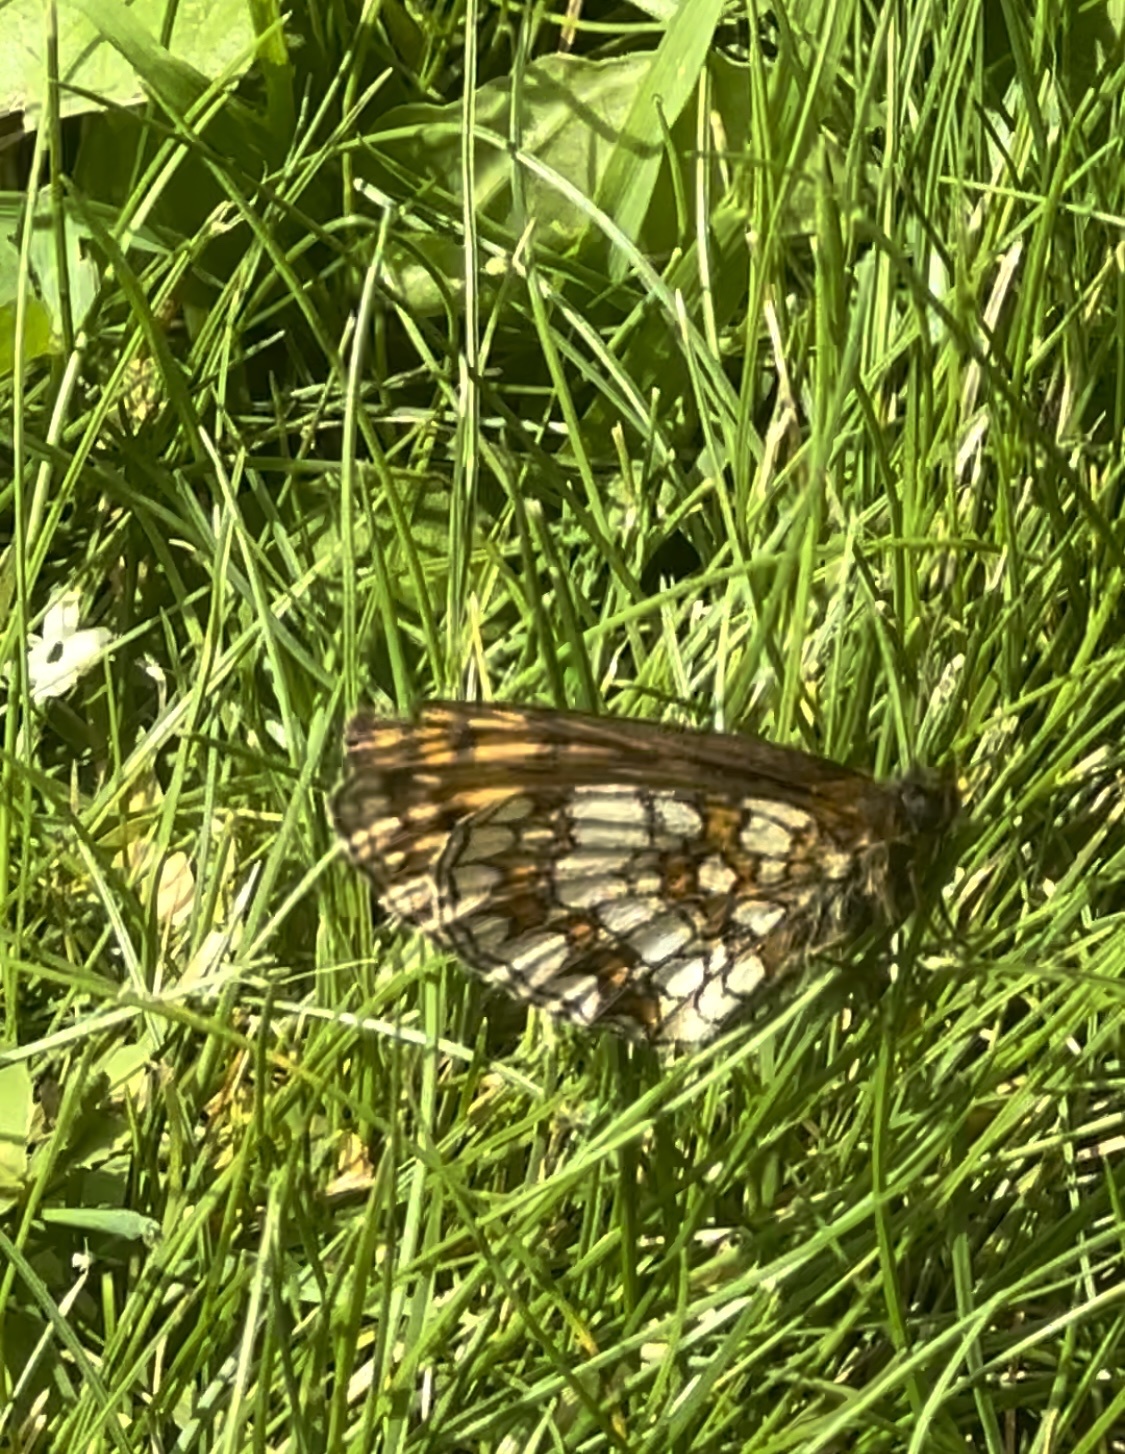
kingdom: Animalia
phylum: Arthropoda
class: Insecta
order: Lepidoptera
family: Nymphalidae
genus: Melitaea
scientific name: Melitaea athalia
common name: Heath fritillary
